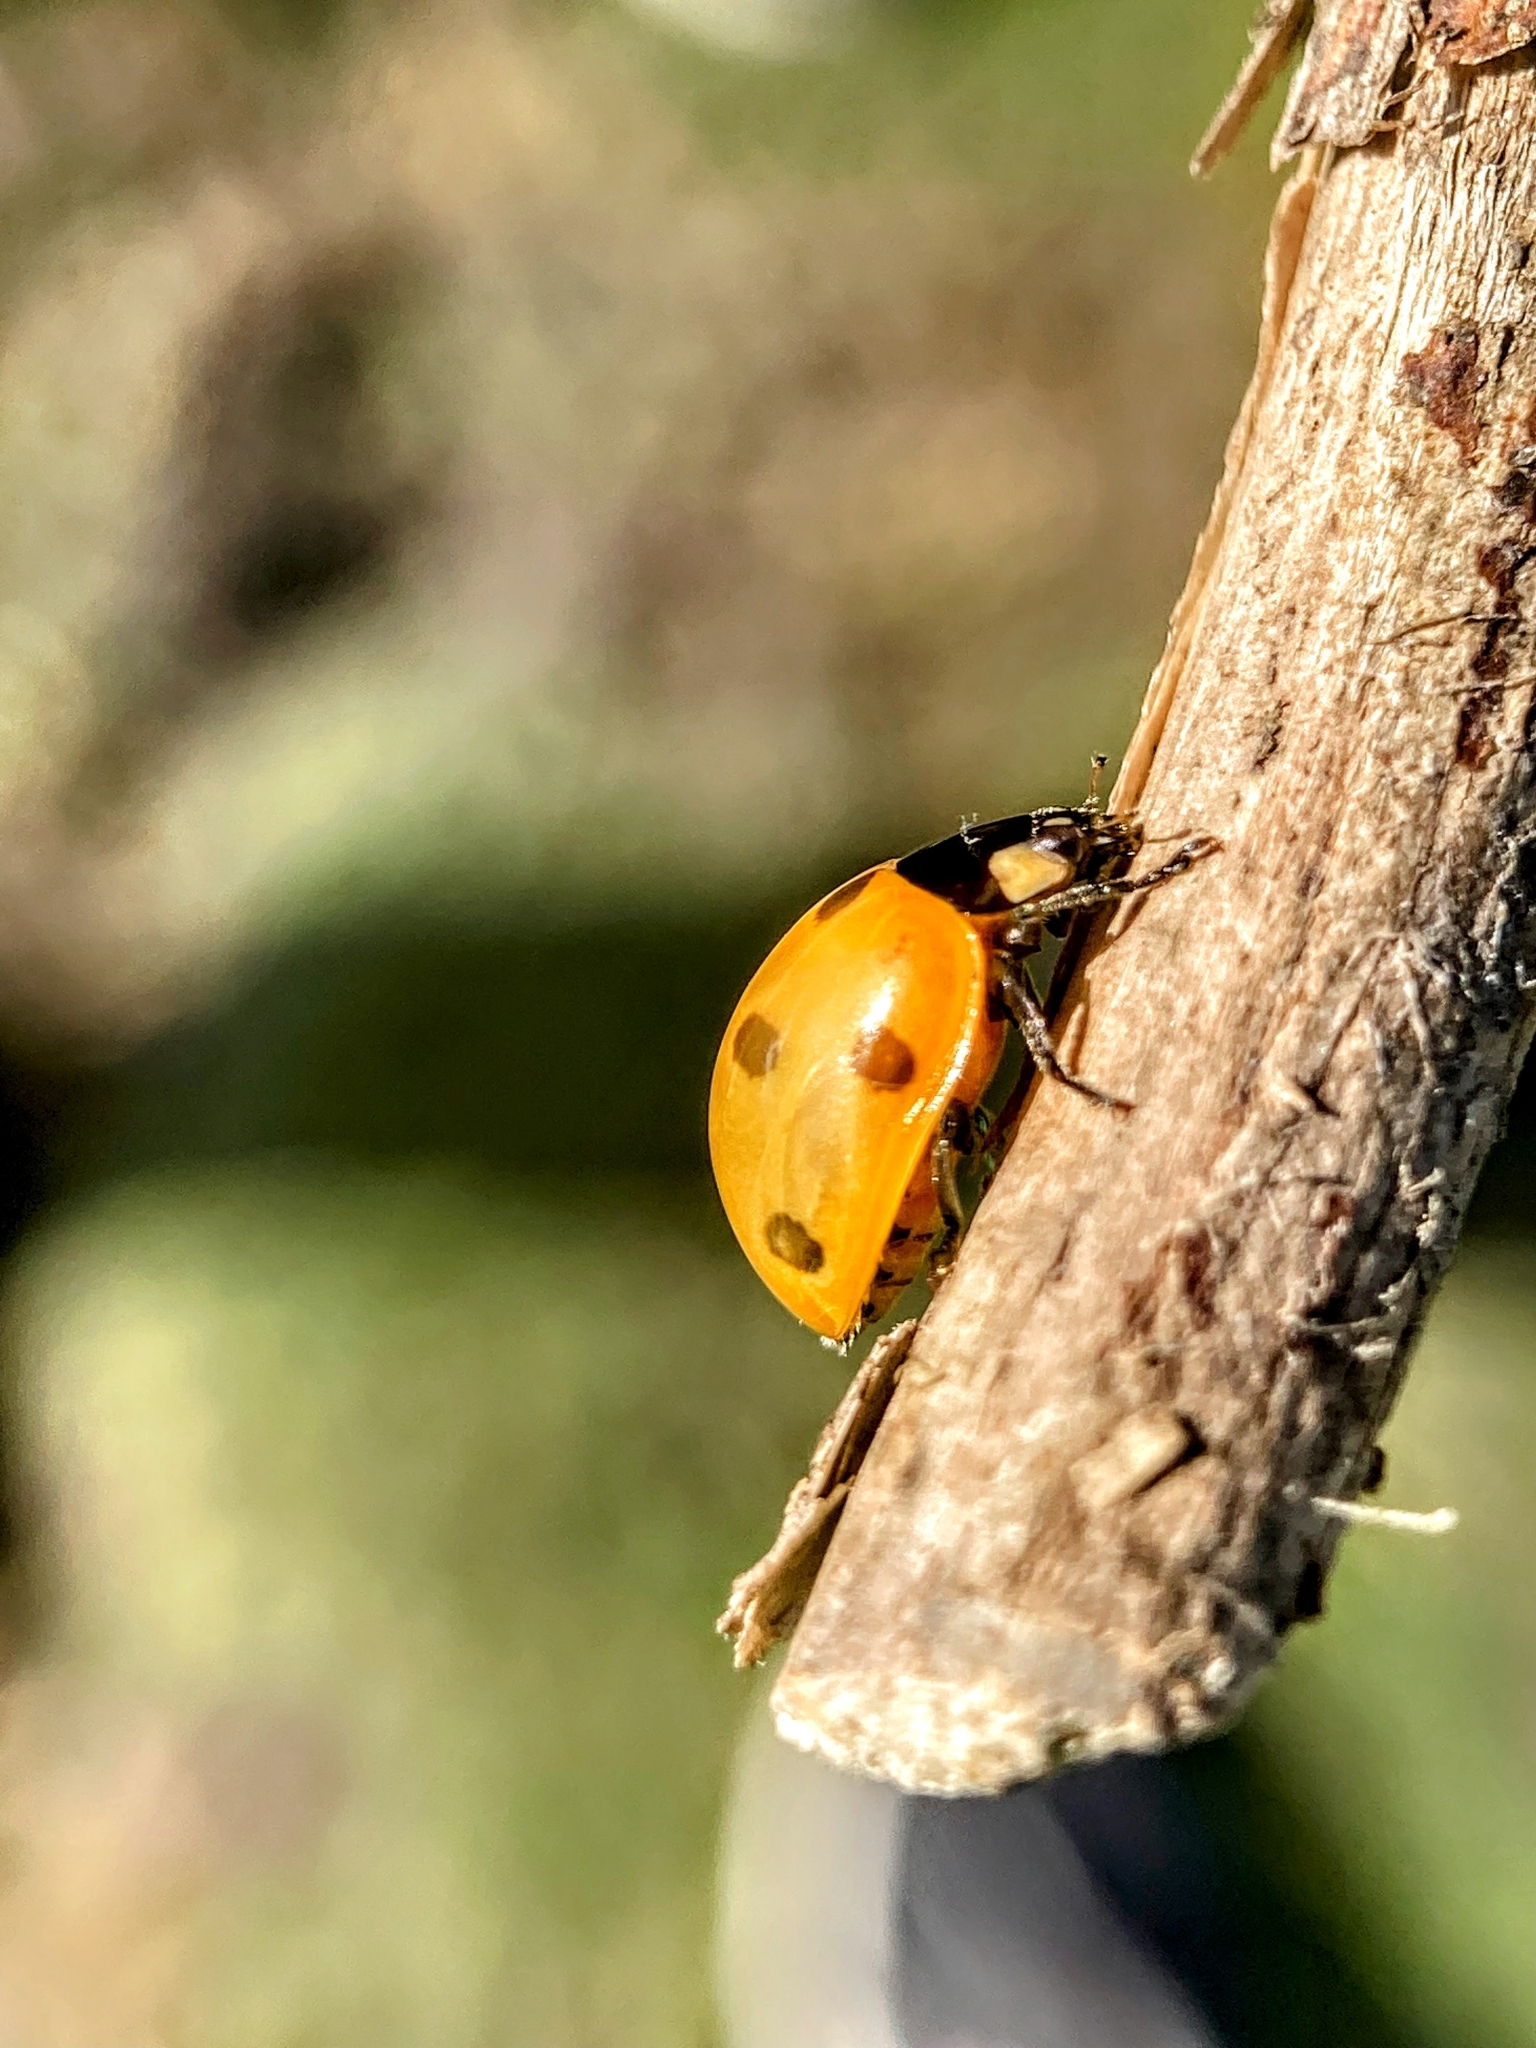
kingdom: Animalia
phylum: Arthropoda
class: Insecta
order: Coleoptera
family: Coccinellidae
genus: Coccinella
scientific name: Coccinella septempunctata
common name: Sevenspotted lady beetle
